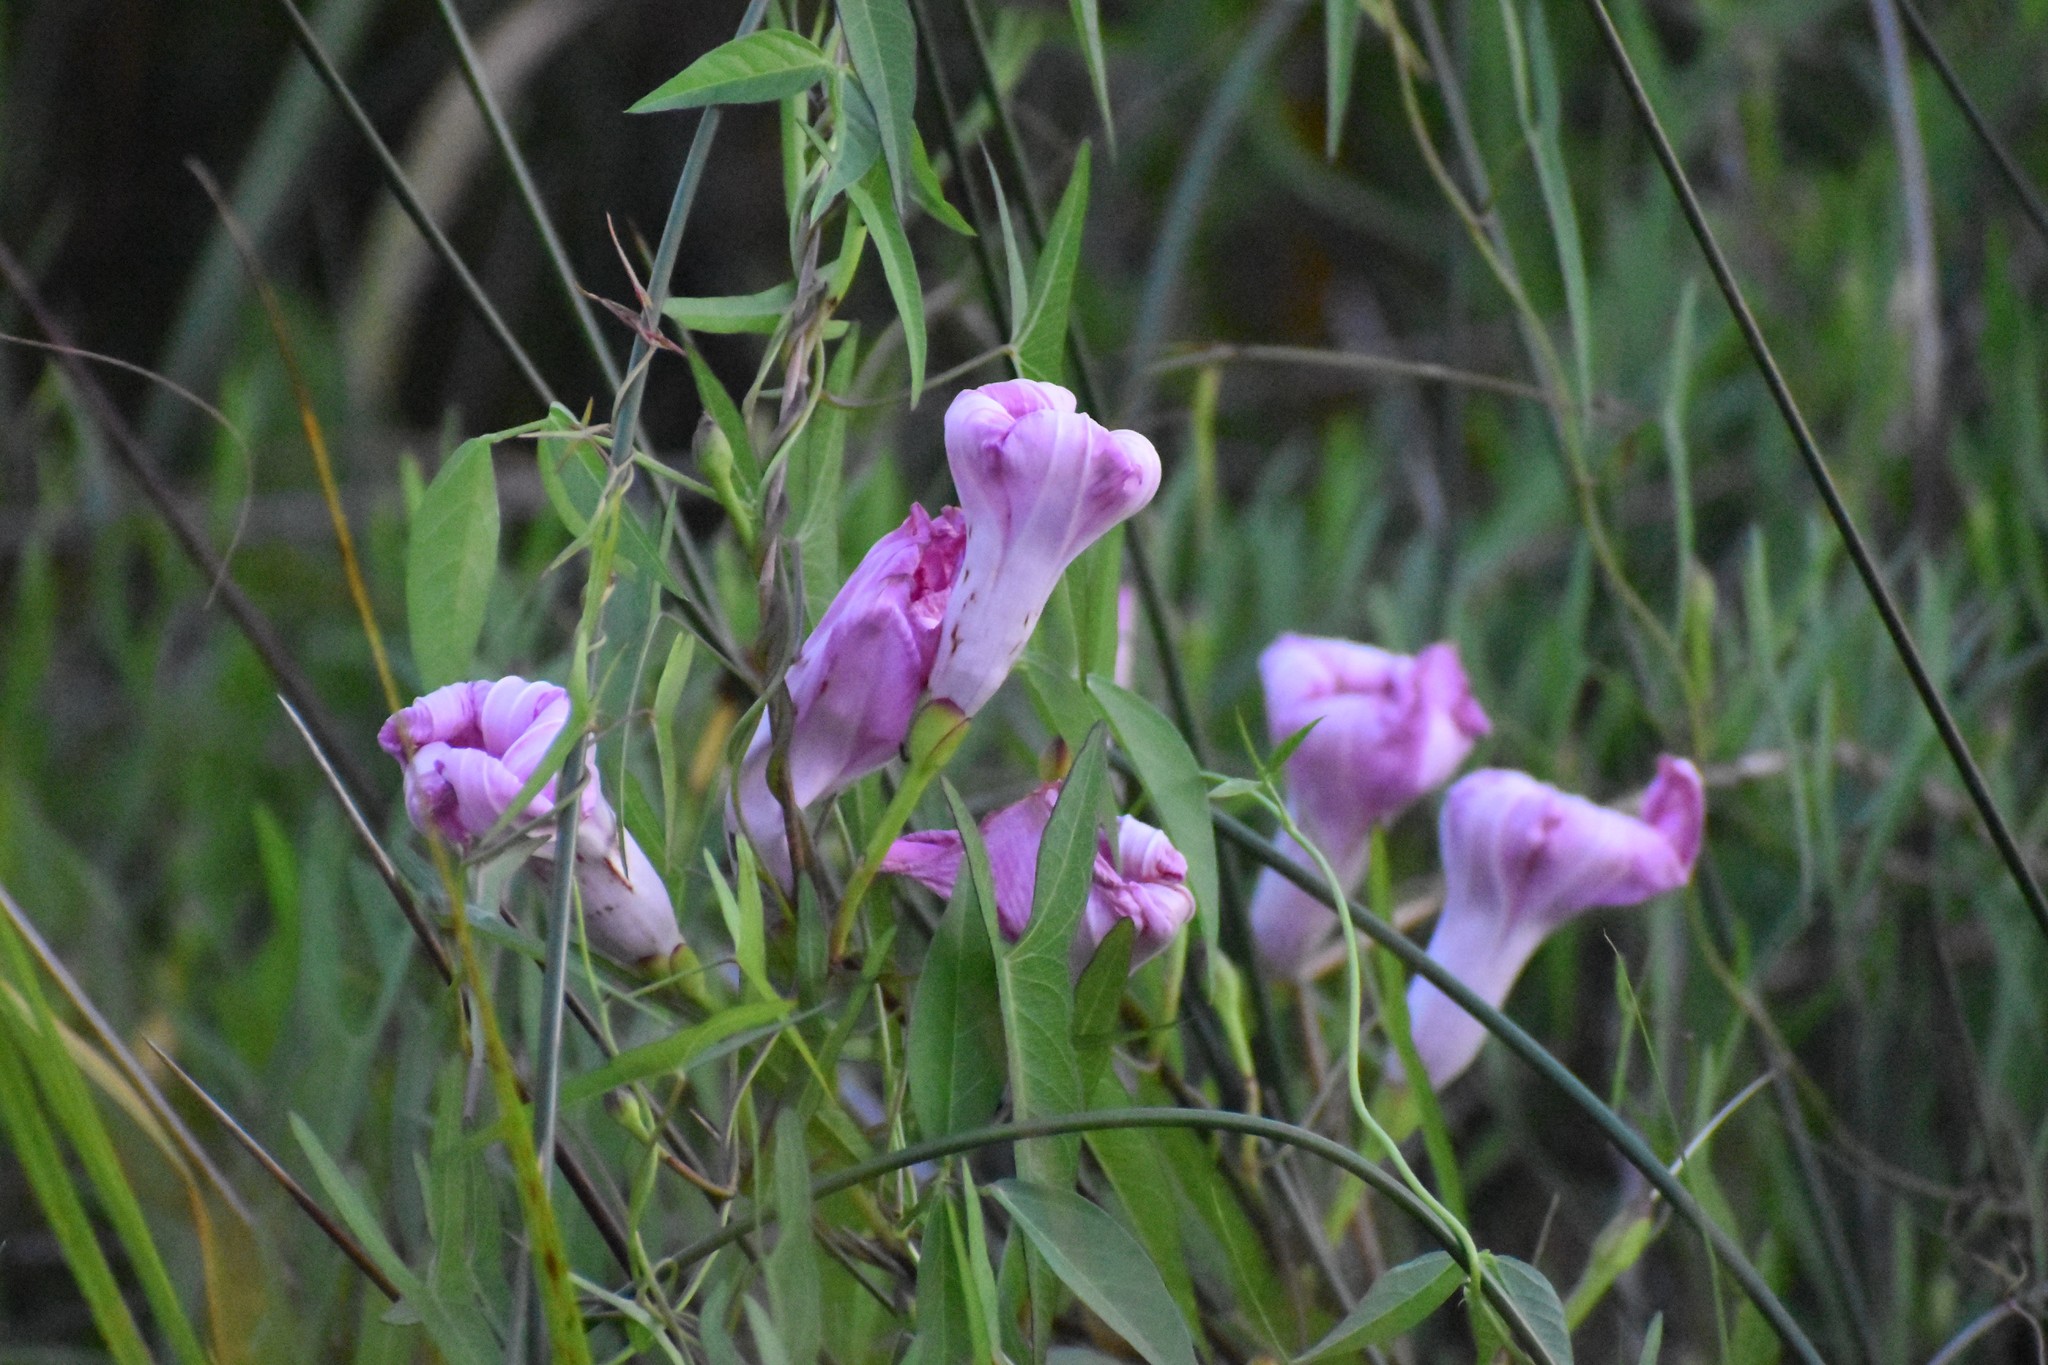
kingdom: Plantae
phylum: Tracheophyta
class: Magnoliopsida
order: Solanales
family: Convolvulaceae
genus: Ipomoea
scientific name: Ipomoea sagittata
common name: Saltmarsh morning glory
